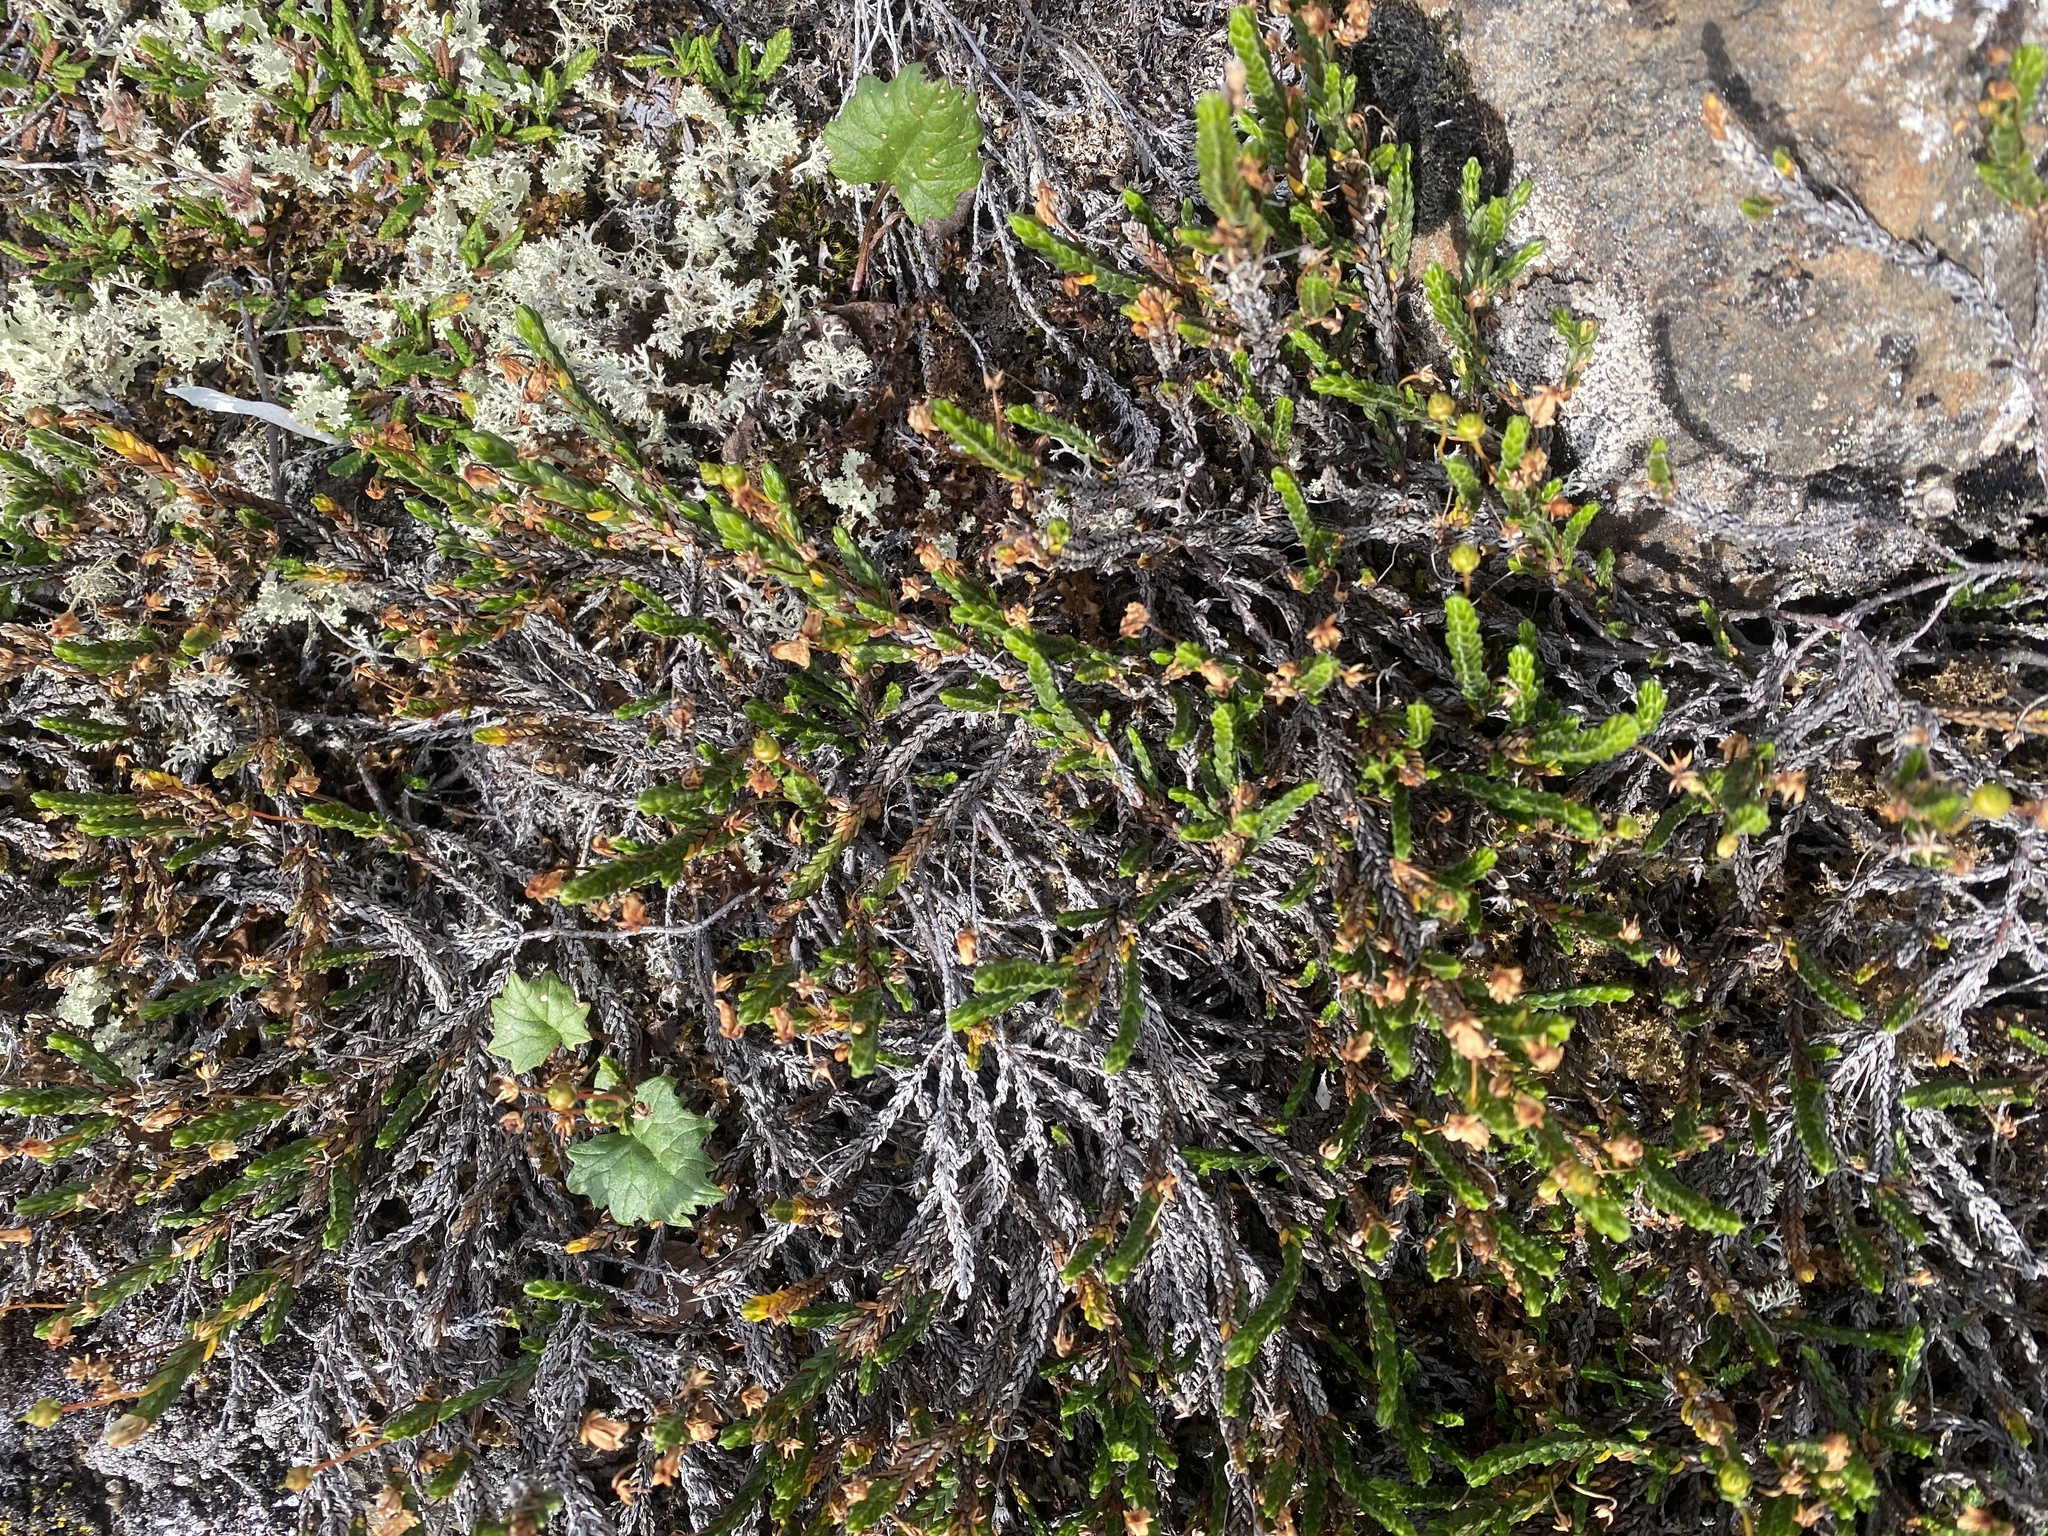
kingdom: Plantae
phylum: Tracheophyta
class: Magnoliopsida
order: Ericales
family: Ericaceae
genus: Cassiope
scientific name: Cassiope tetragona
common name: Arctic bell heather
